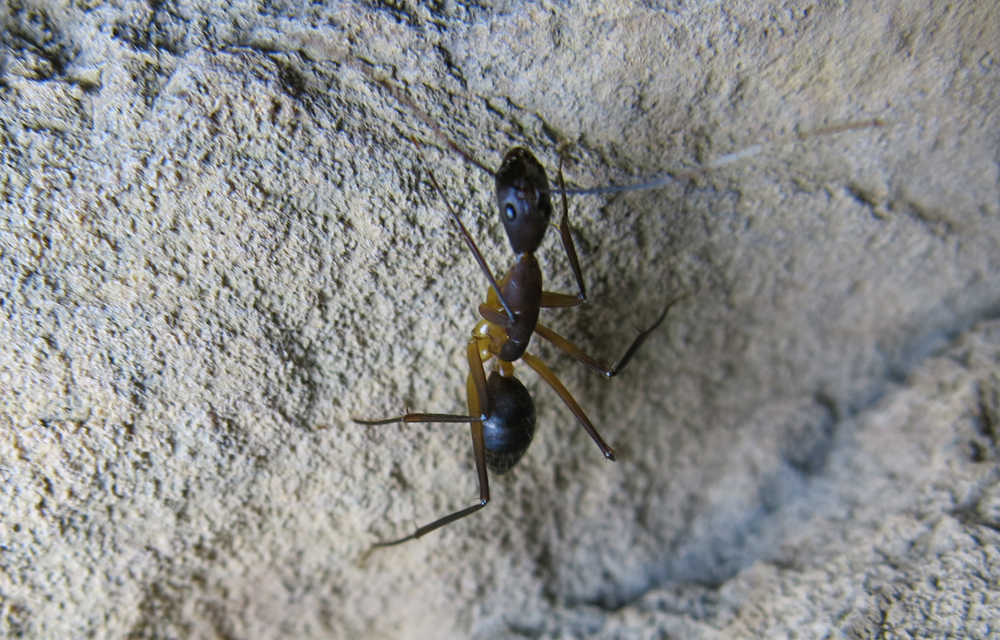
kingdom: Animalia
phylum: Arthropoda
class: Insecta
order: Hymenoptera
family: Formicidae
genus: Camponotus
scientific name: Camponotus etiolipes
